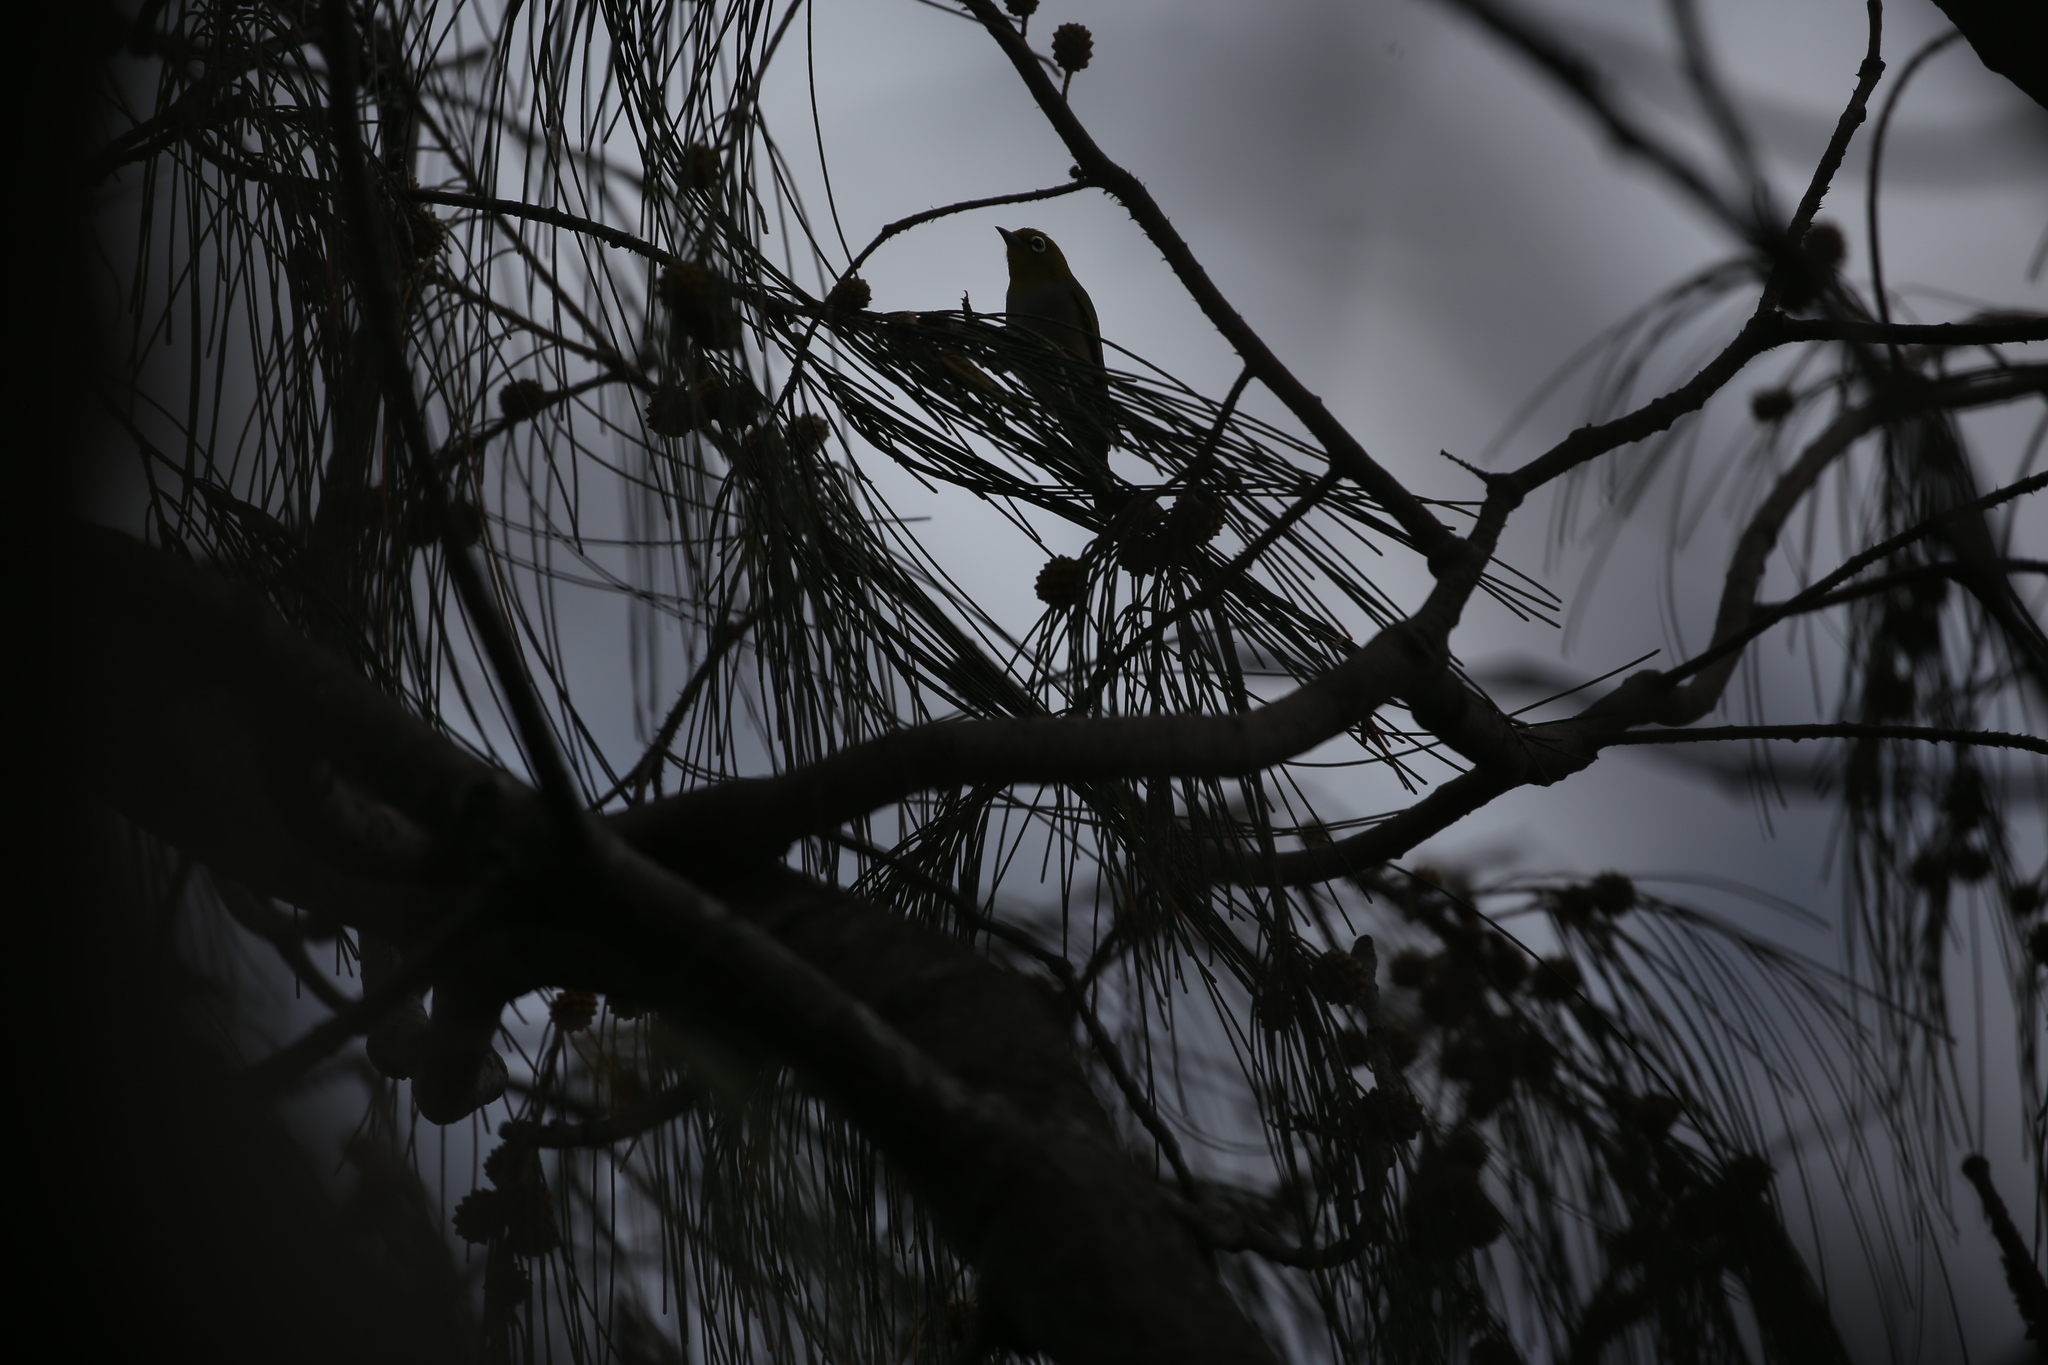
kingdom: Animalia
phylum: Chordata
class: Aves
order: Passeriformes
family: Zosteropidae
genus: Zosterops
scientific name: Zosterops lateralis
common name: Silvereye
